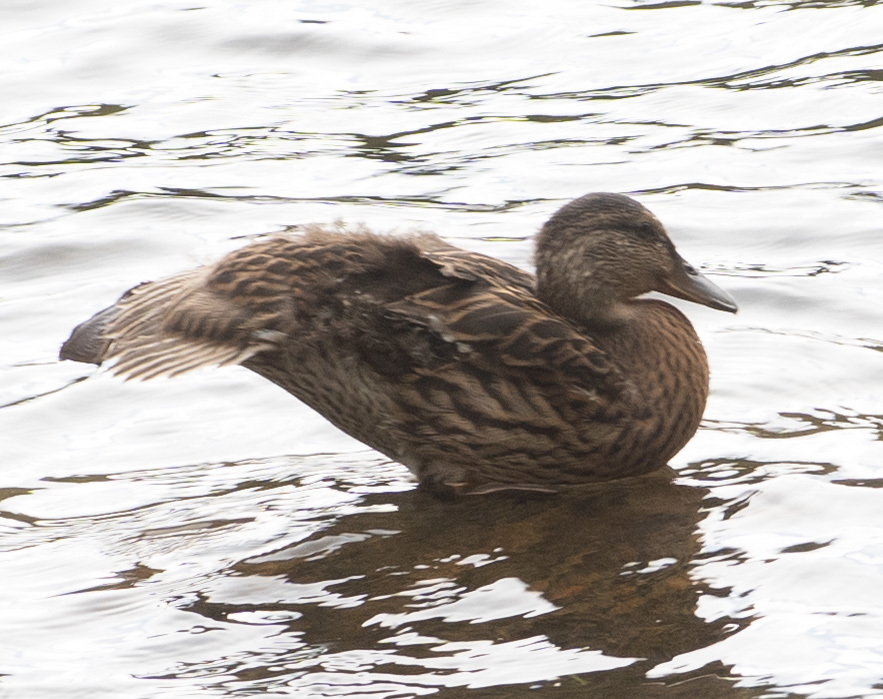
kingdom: Animalia
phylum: Chordata
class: Aves
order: Anseriformes
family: Anatidae
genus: Anas
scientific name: Anas platyrhynchos
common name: Mallard
